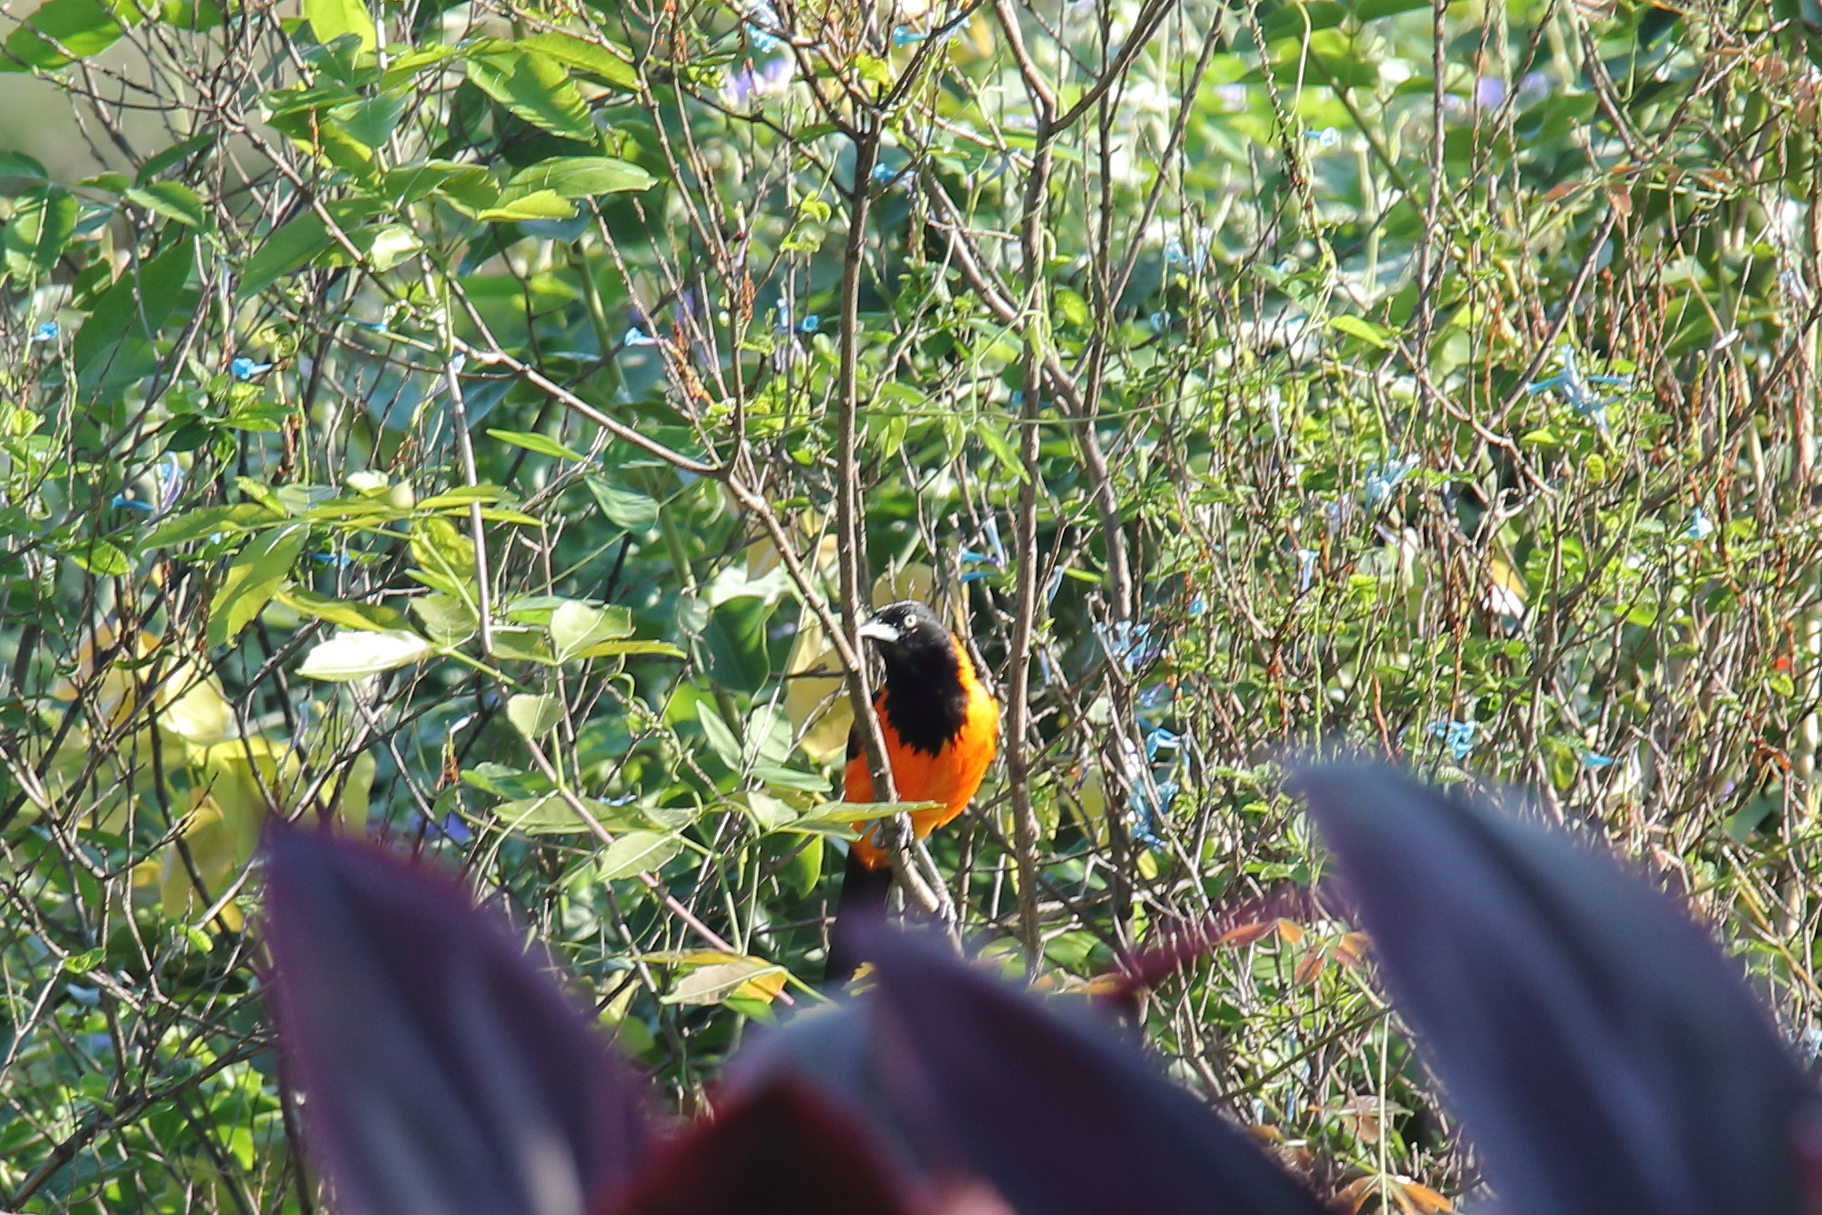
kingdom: Animalia
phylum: Chordata
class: Aves
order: Passeriformes
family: Icteridae
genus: Icterus
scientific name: Icterus icterus
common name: Venezuelan troupial
